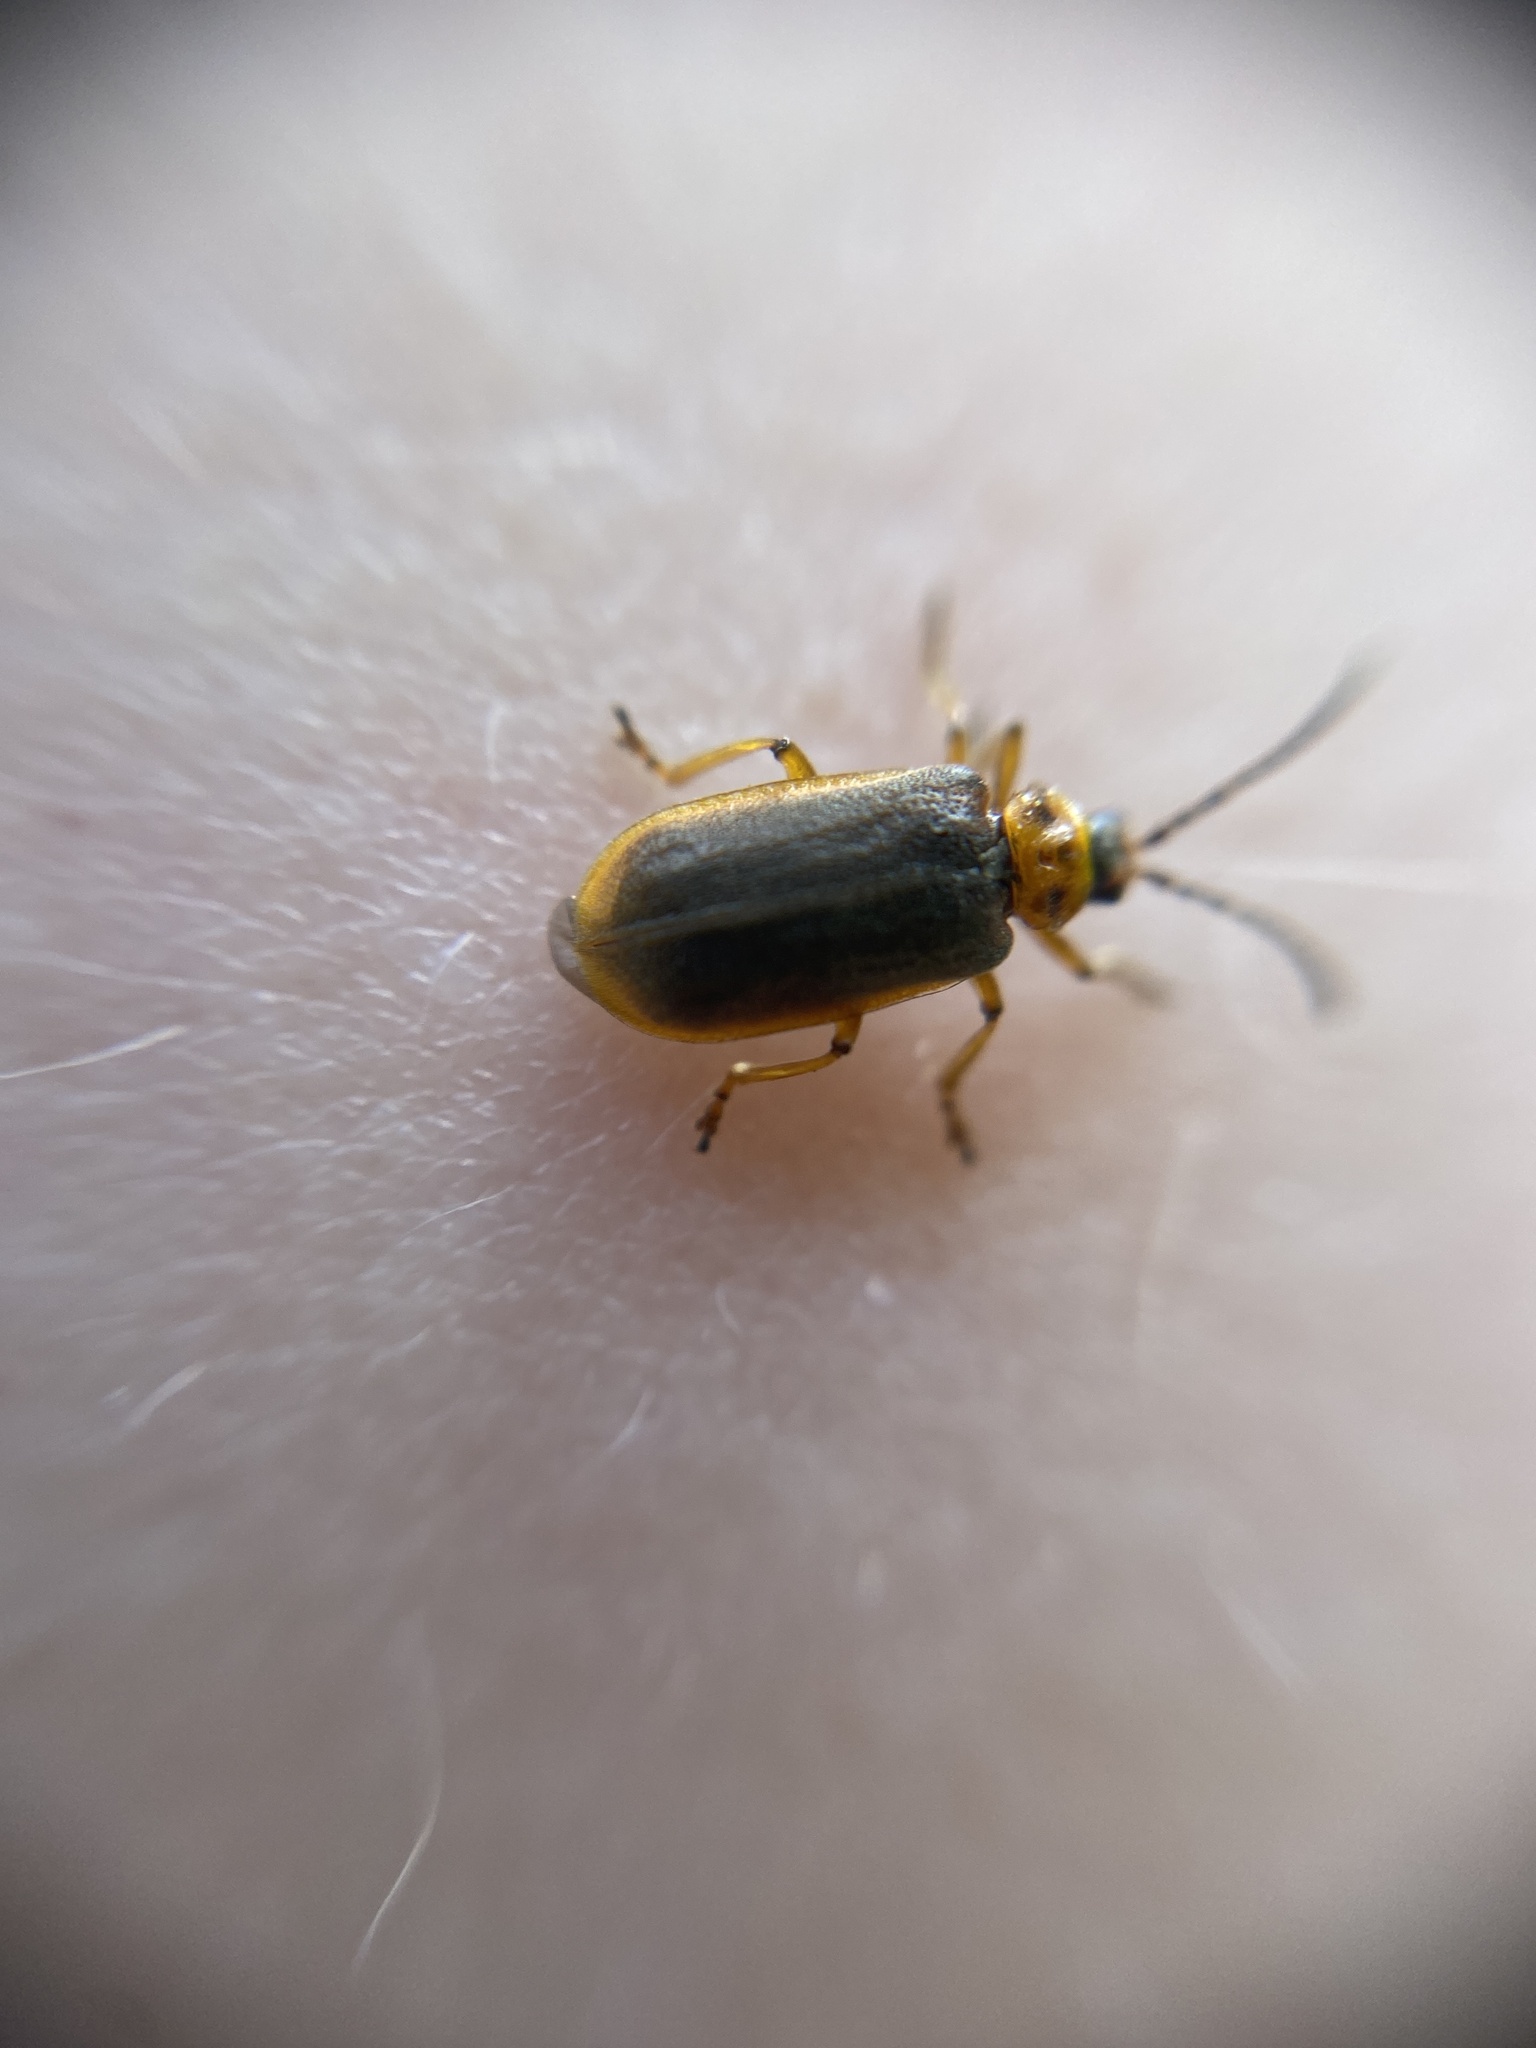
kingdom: Animalia
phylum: Arthropoda
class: Insecta
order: Coleoptera
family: Chrysomelidae
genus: Galerucella
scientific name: Galerucella nymphaeae
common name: Leaf beetle
